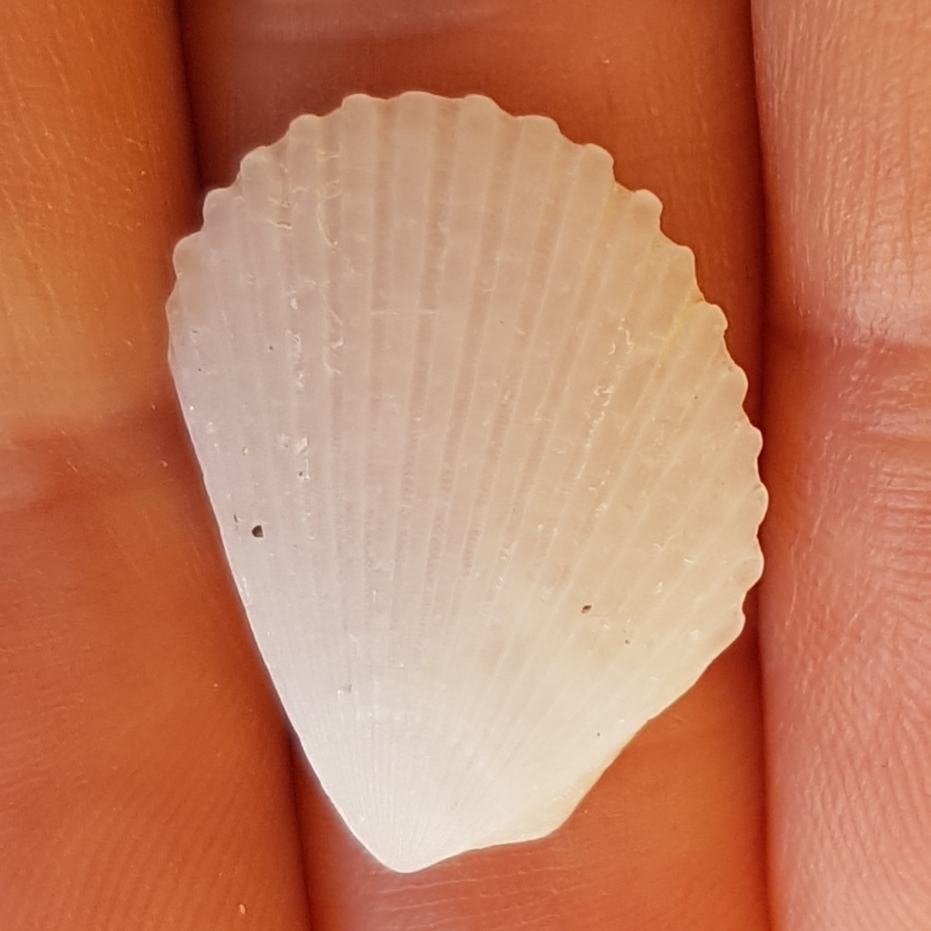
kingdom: Animalia
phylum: Mollusca
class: Bivalvia
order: Limida
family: Limidae
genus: Lima
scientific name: Lima lima
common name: Frilled file shell
